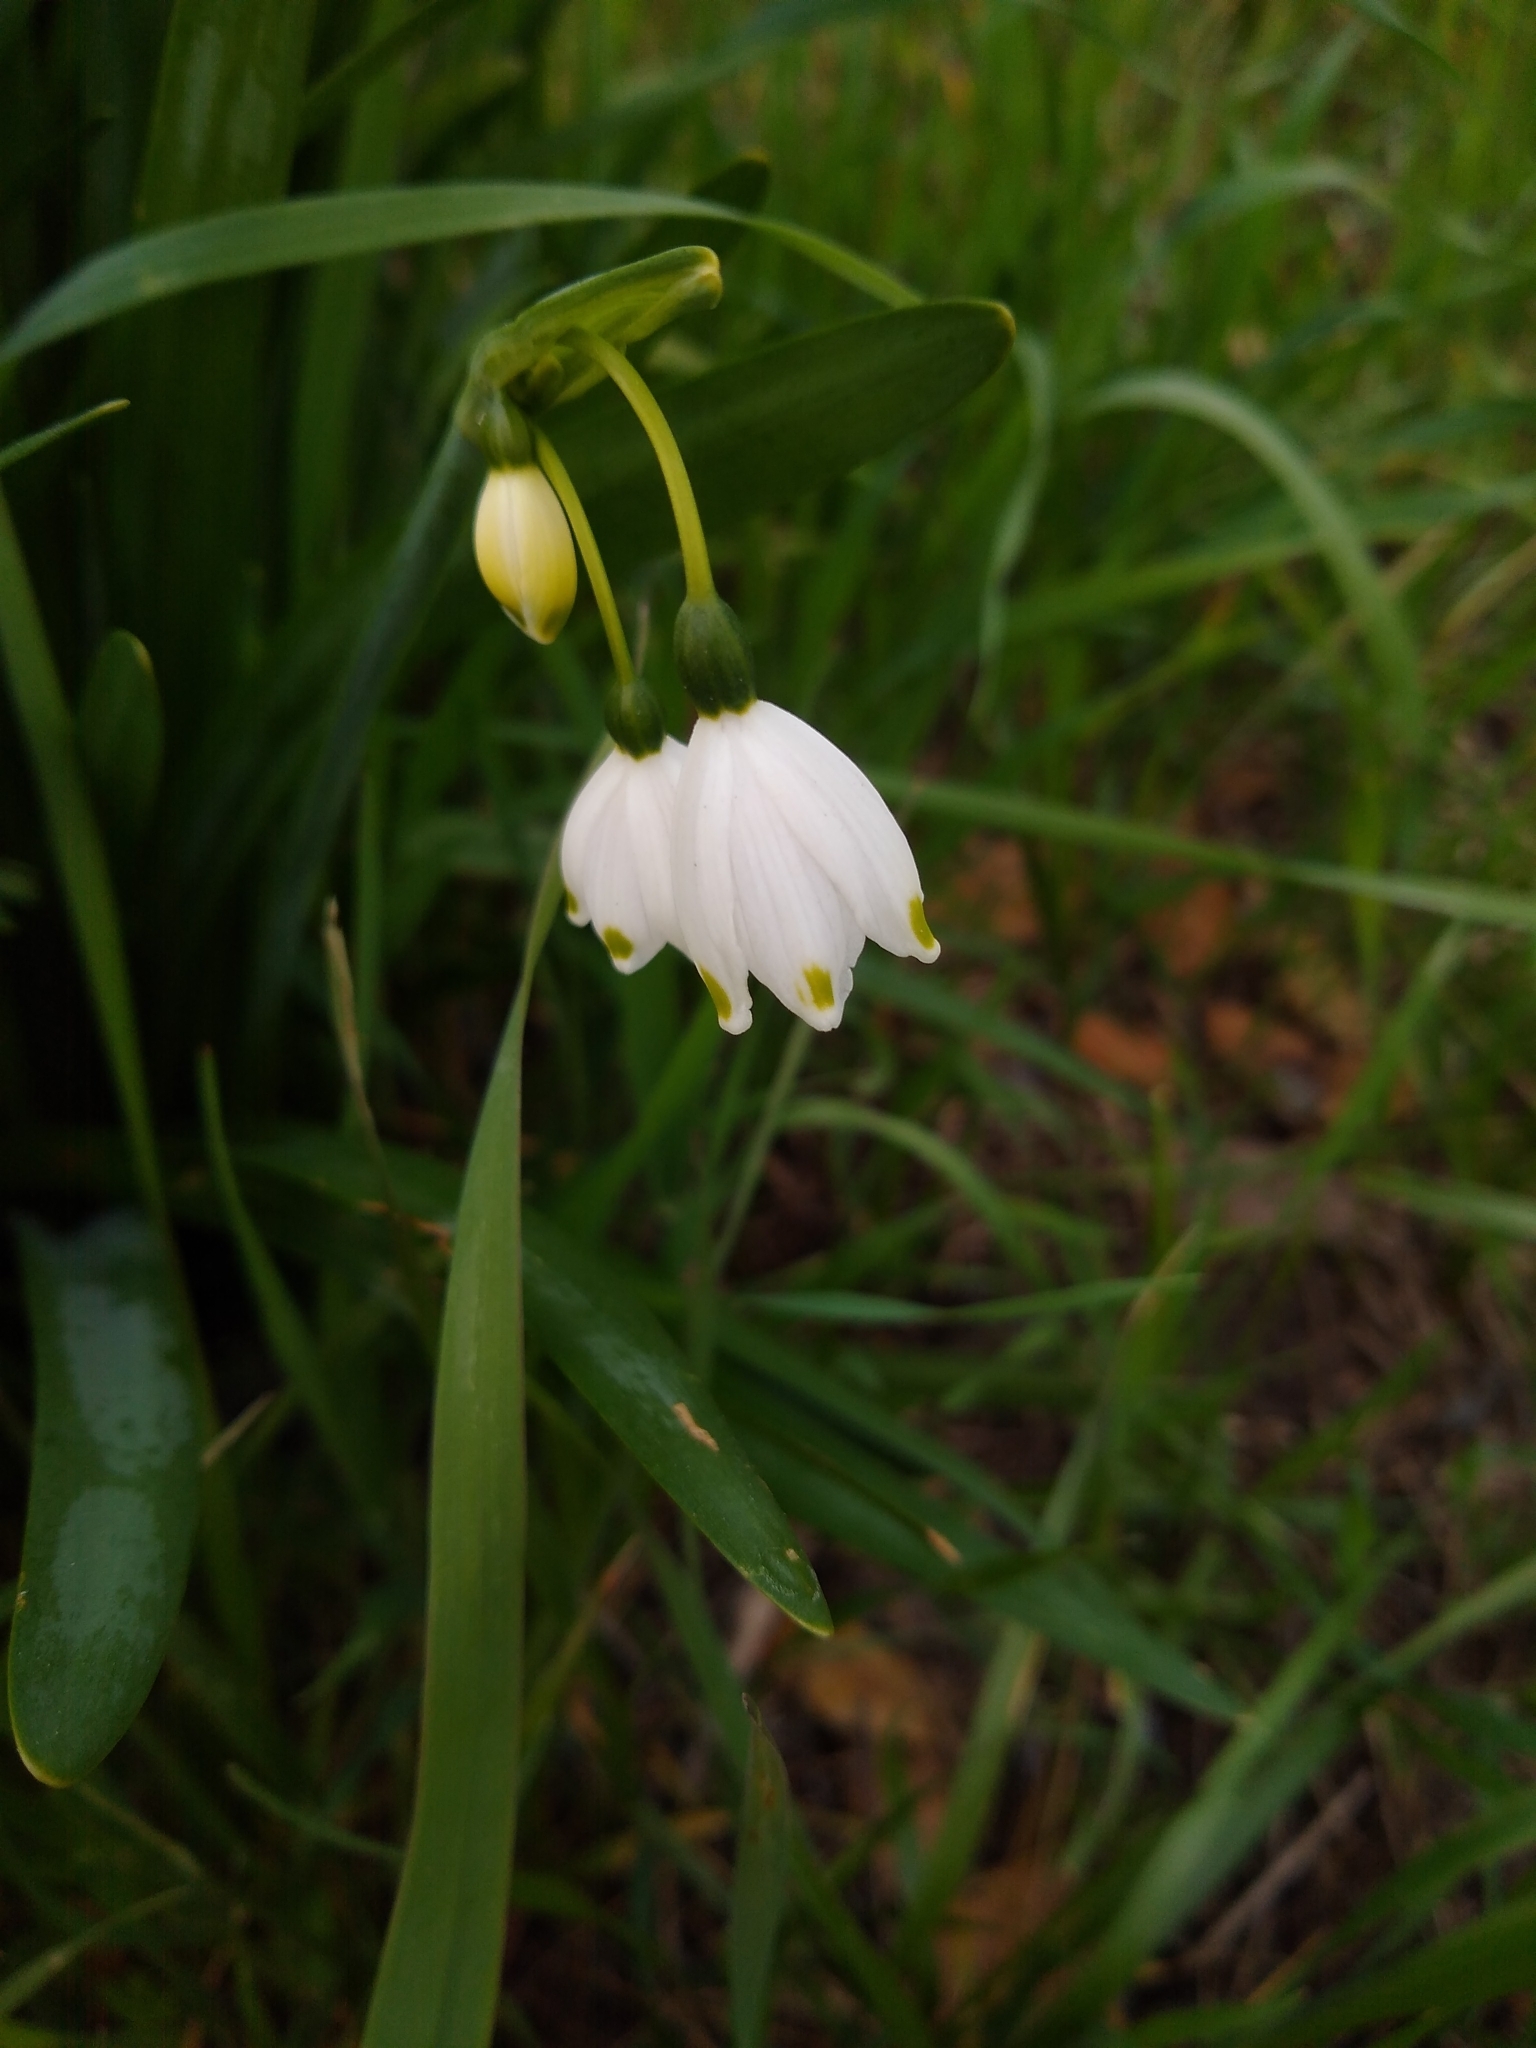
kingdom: Plantae
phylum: Tracheophyta
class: Liliopsida
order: Asparagales
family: Amaryllidaceae
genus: Leucojum
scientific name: Leucojum aestivum
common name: Summer snowflake
